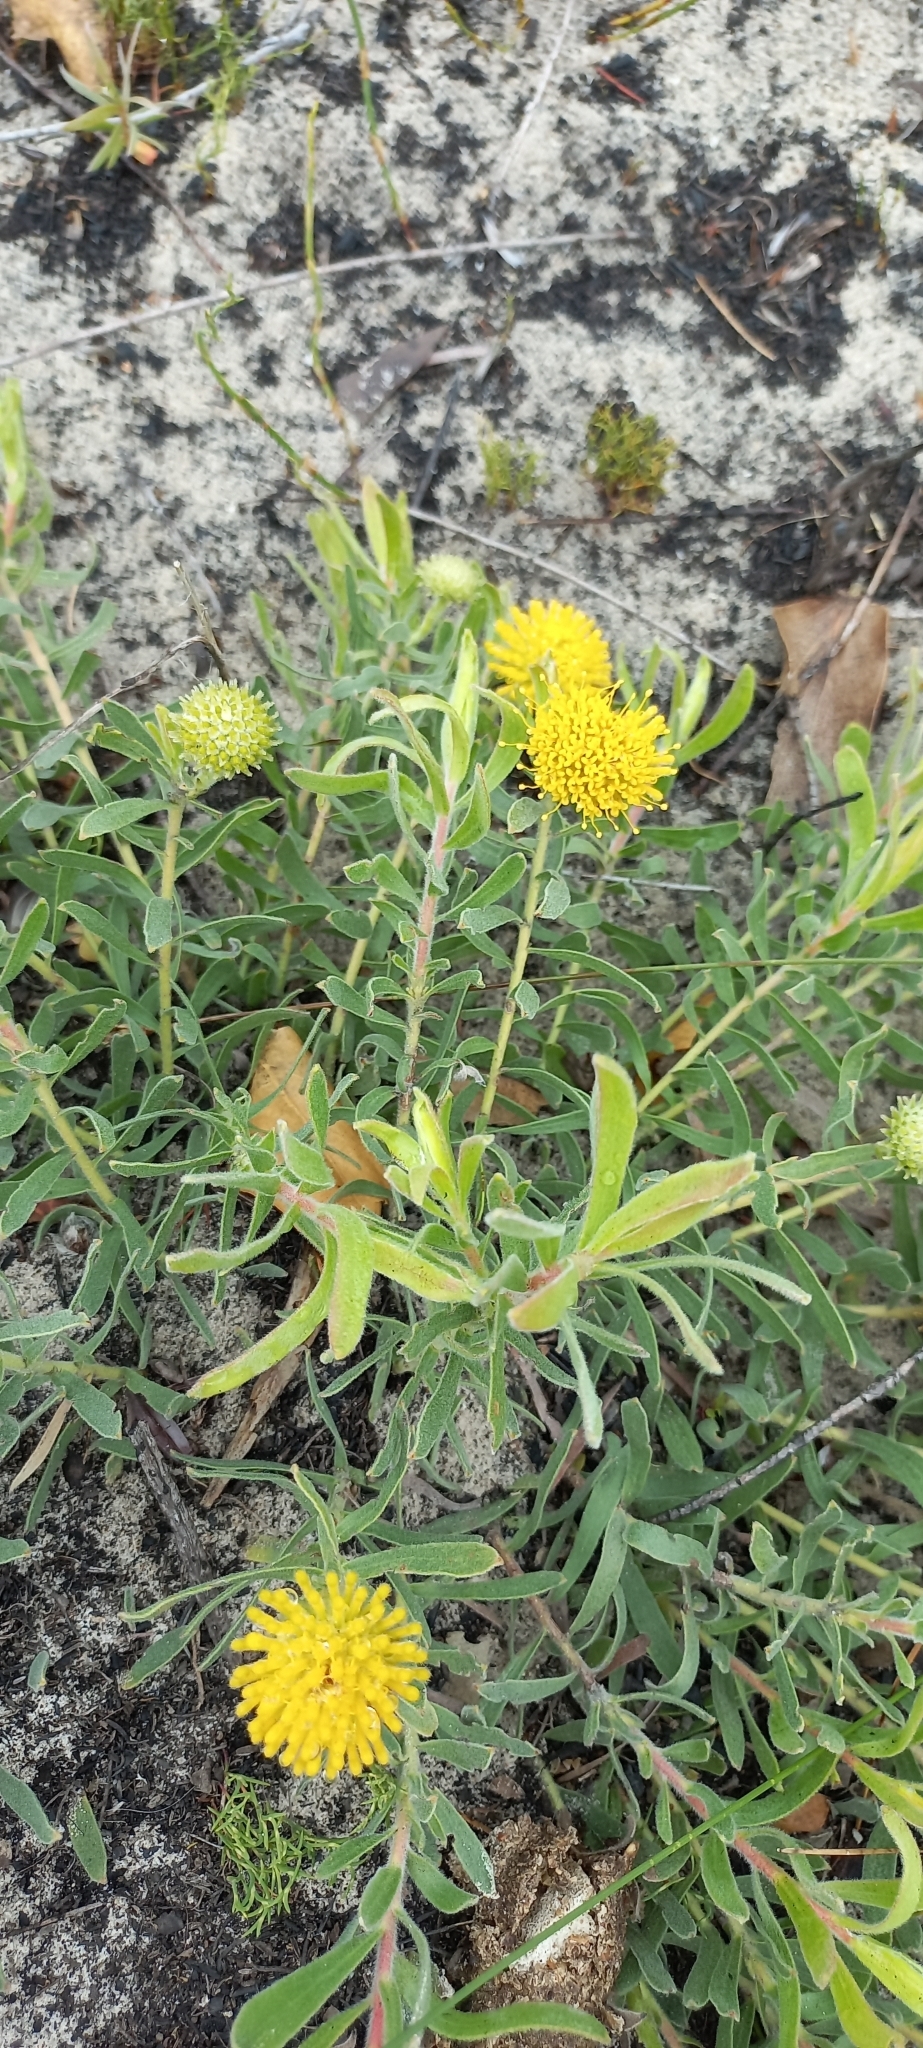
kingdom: Plantae
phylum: Tracheophyta
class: Magnoliopsida
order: Proteales
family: Proteaceae
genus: Leucospermum
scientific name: Leucospermum prostratum
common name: Yellow-trailing pincushion
